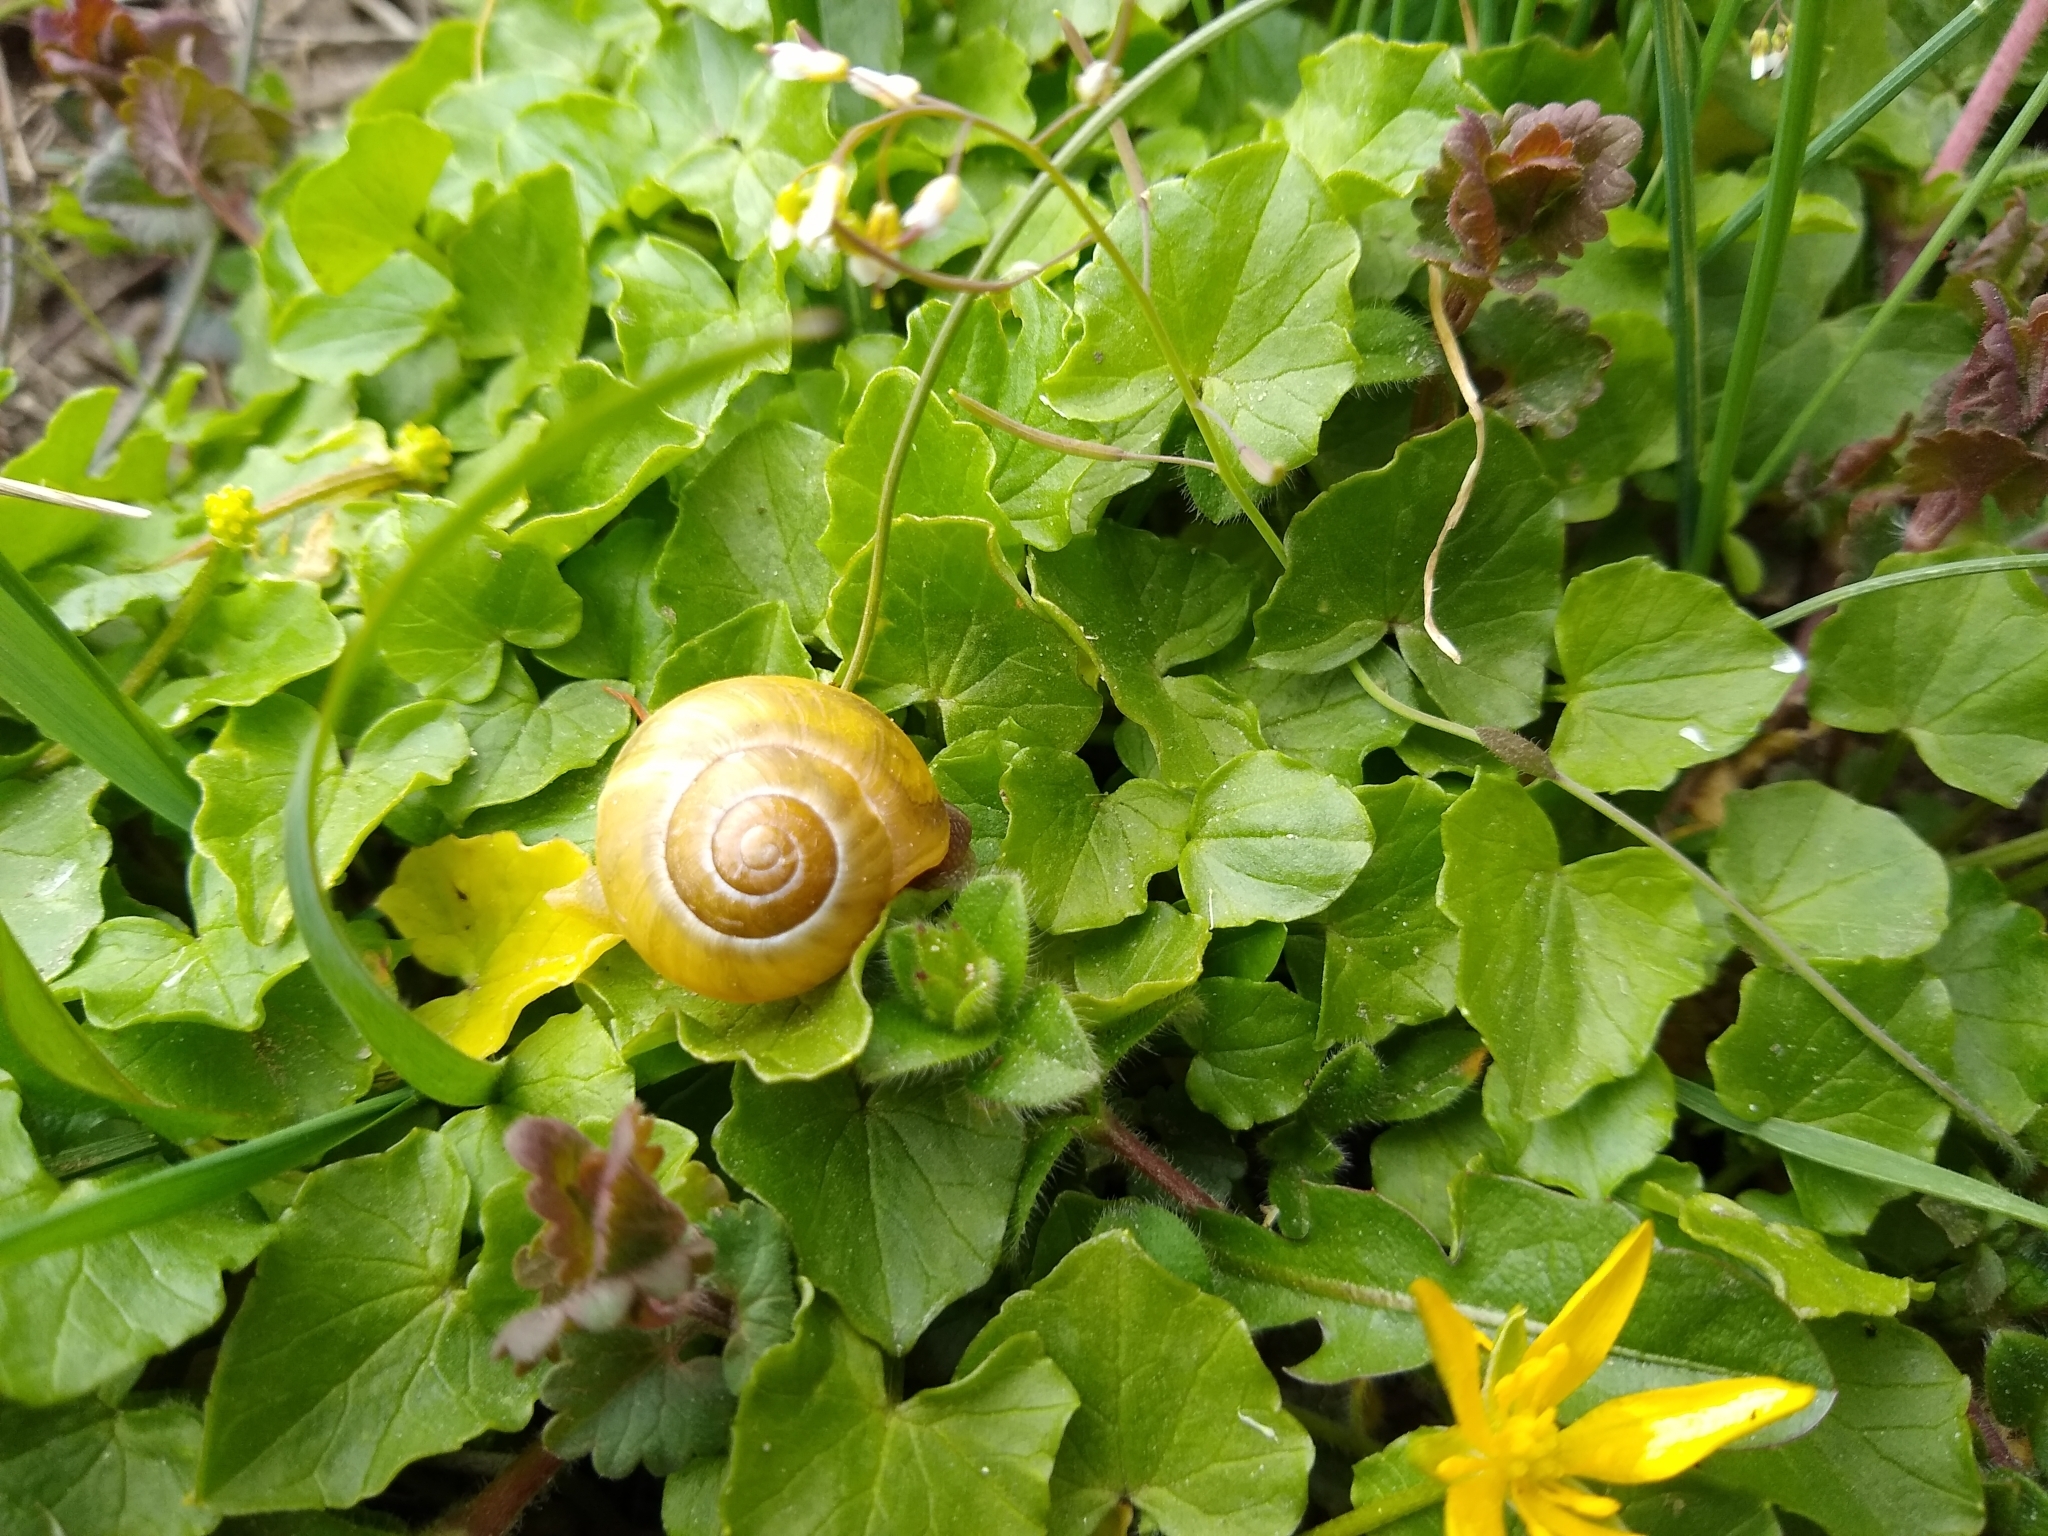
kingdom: Animalia
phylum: Mollusca
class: Gastropoda
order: Stylommatophora
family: Helicidae
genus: Cepaea
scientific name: Cepaea
